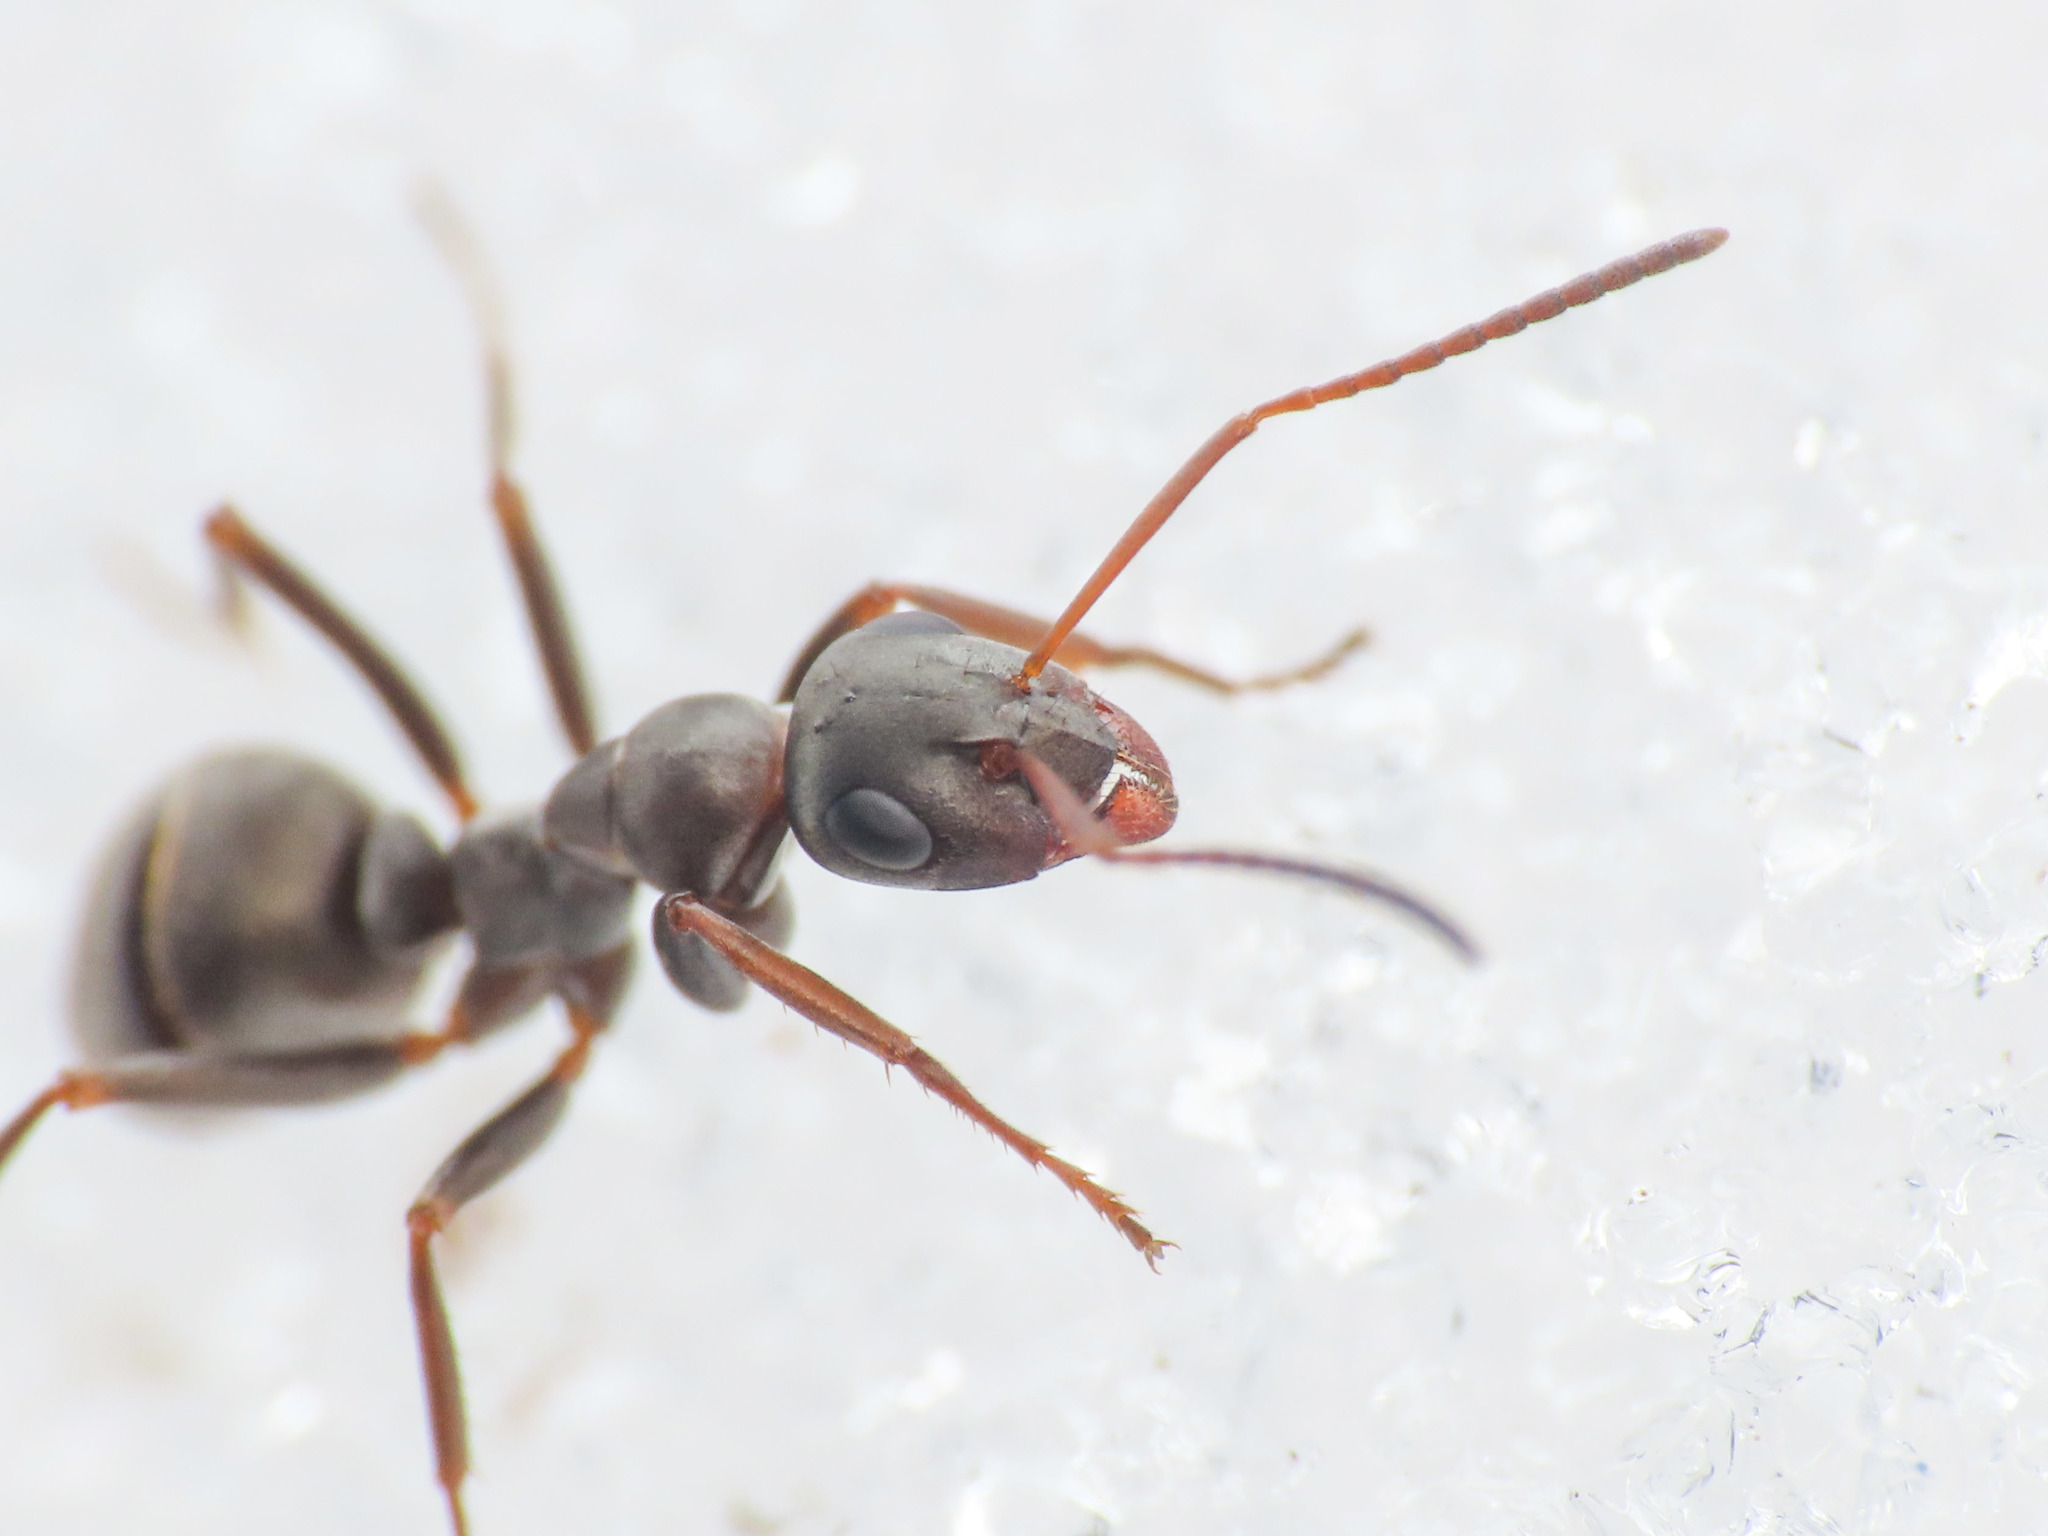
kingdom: Animalia
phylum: Arthropoda
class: Insecta
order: Hymenoptera
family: Formicidae
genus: Formica
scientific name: Formica cunicularia
